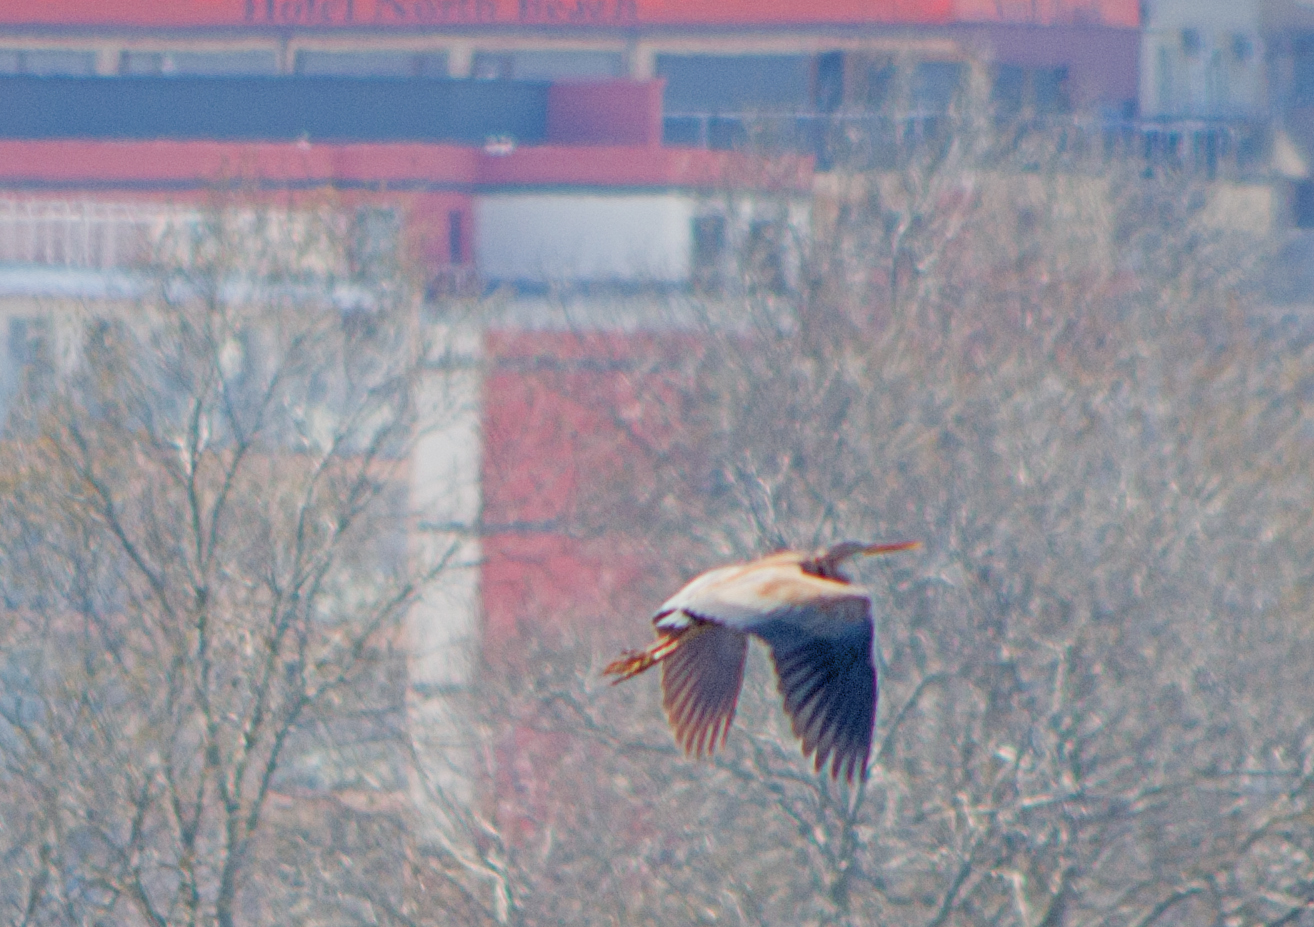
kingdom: Animalia
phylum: Chordata
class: Aves
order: Pelecaniformes
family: Ardeidae
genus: Ardea
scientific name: Ardea purpurea
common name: Purple heron
